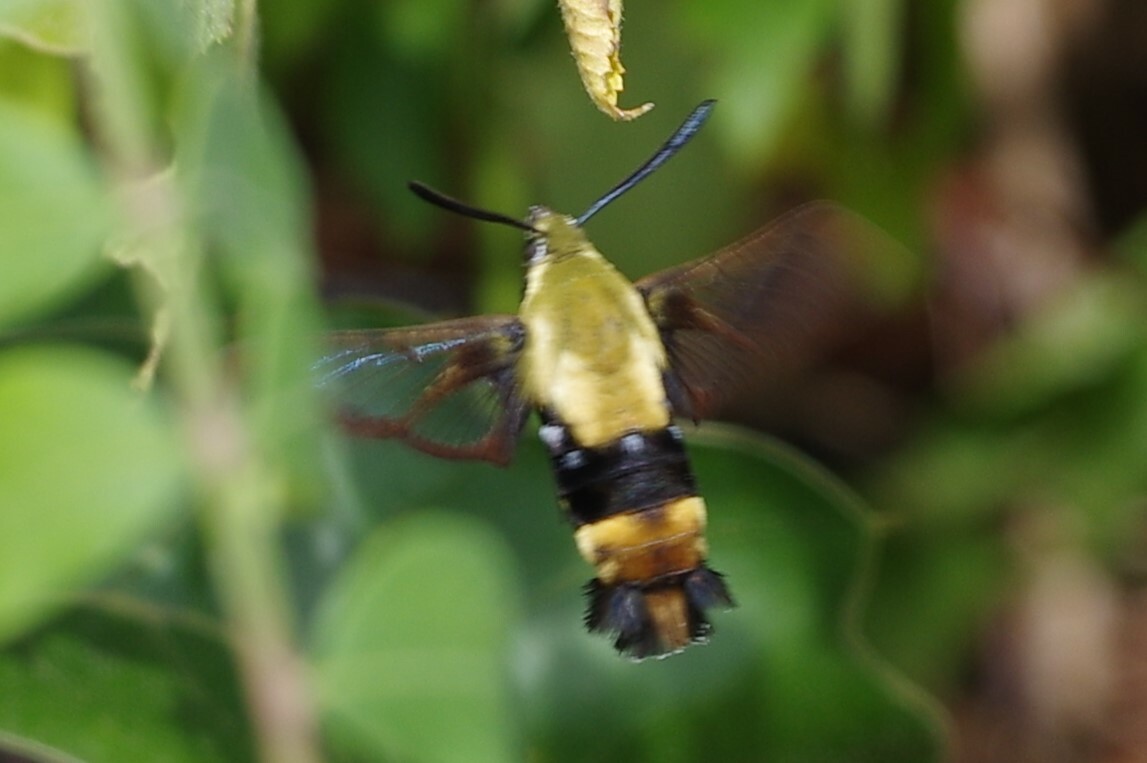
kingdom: Animalia
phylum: Arthropoda
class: Insecta
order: Lepidoptera
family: Sphingidae
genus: Hemaris
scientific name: Hemaris diffinis
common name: Bumblebee moth
